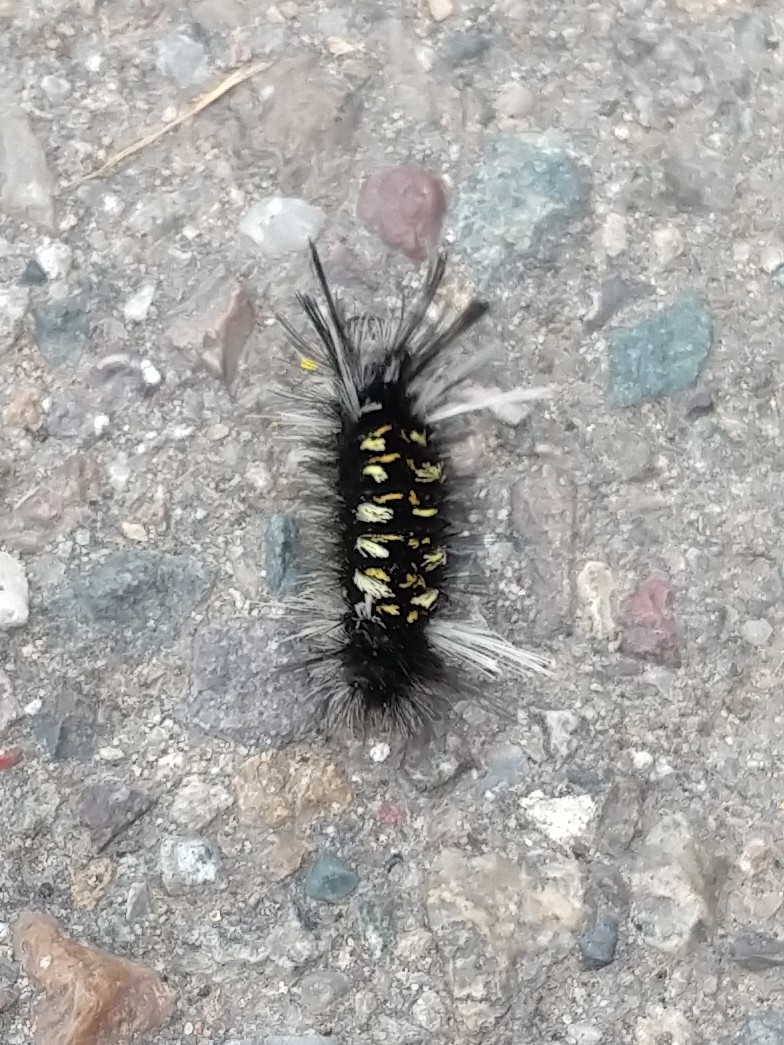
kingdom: Animalia
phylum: Arthropoda
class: Insecta
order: Lepidoptera
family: Erebidae
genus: Euchaetes
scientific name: Euchaetes
